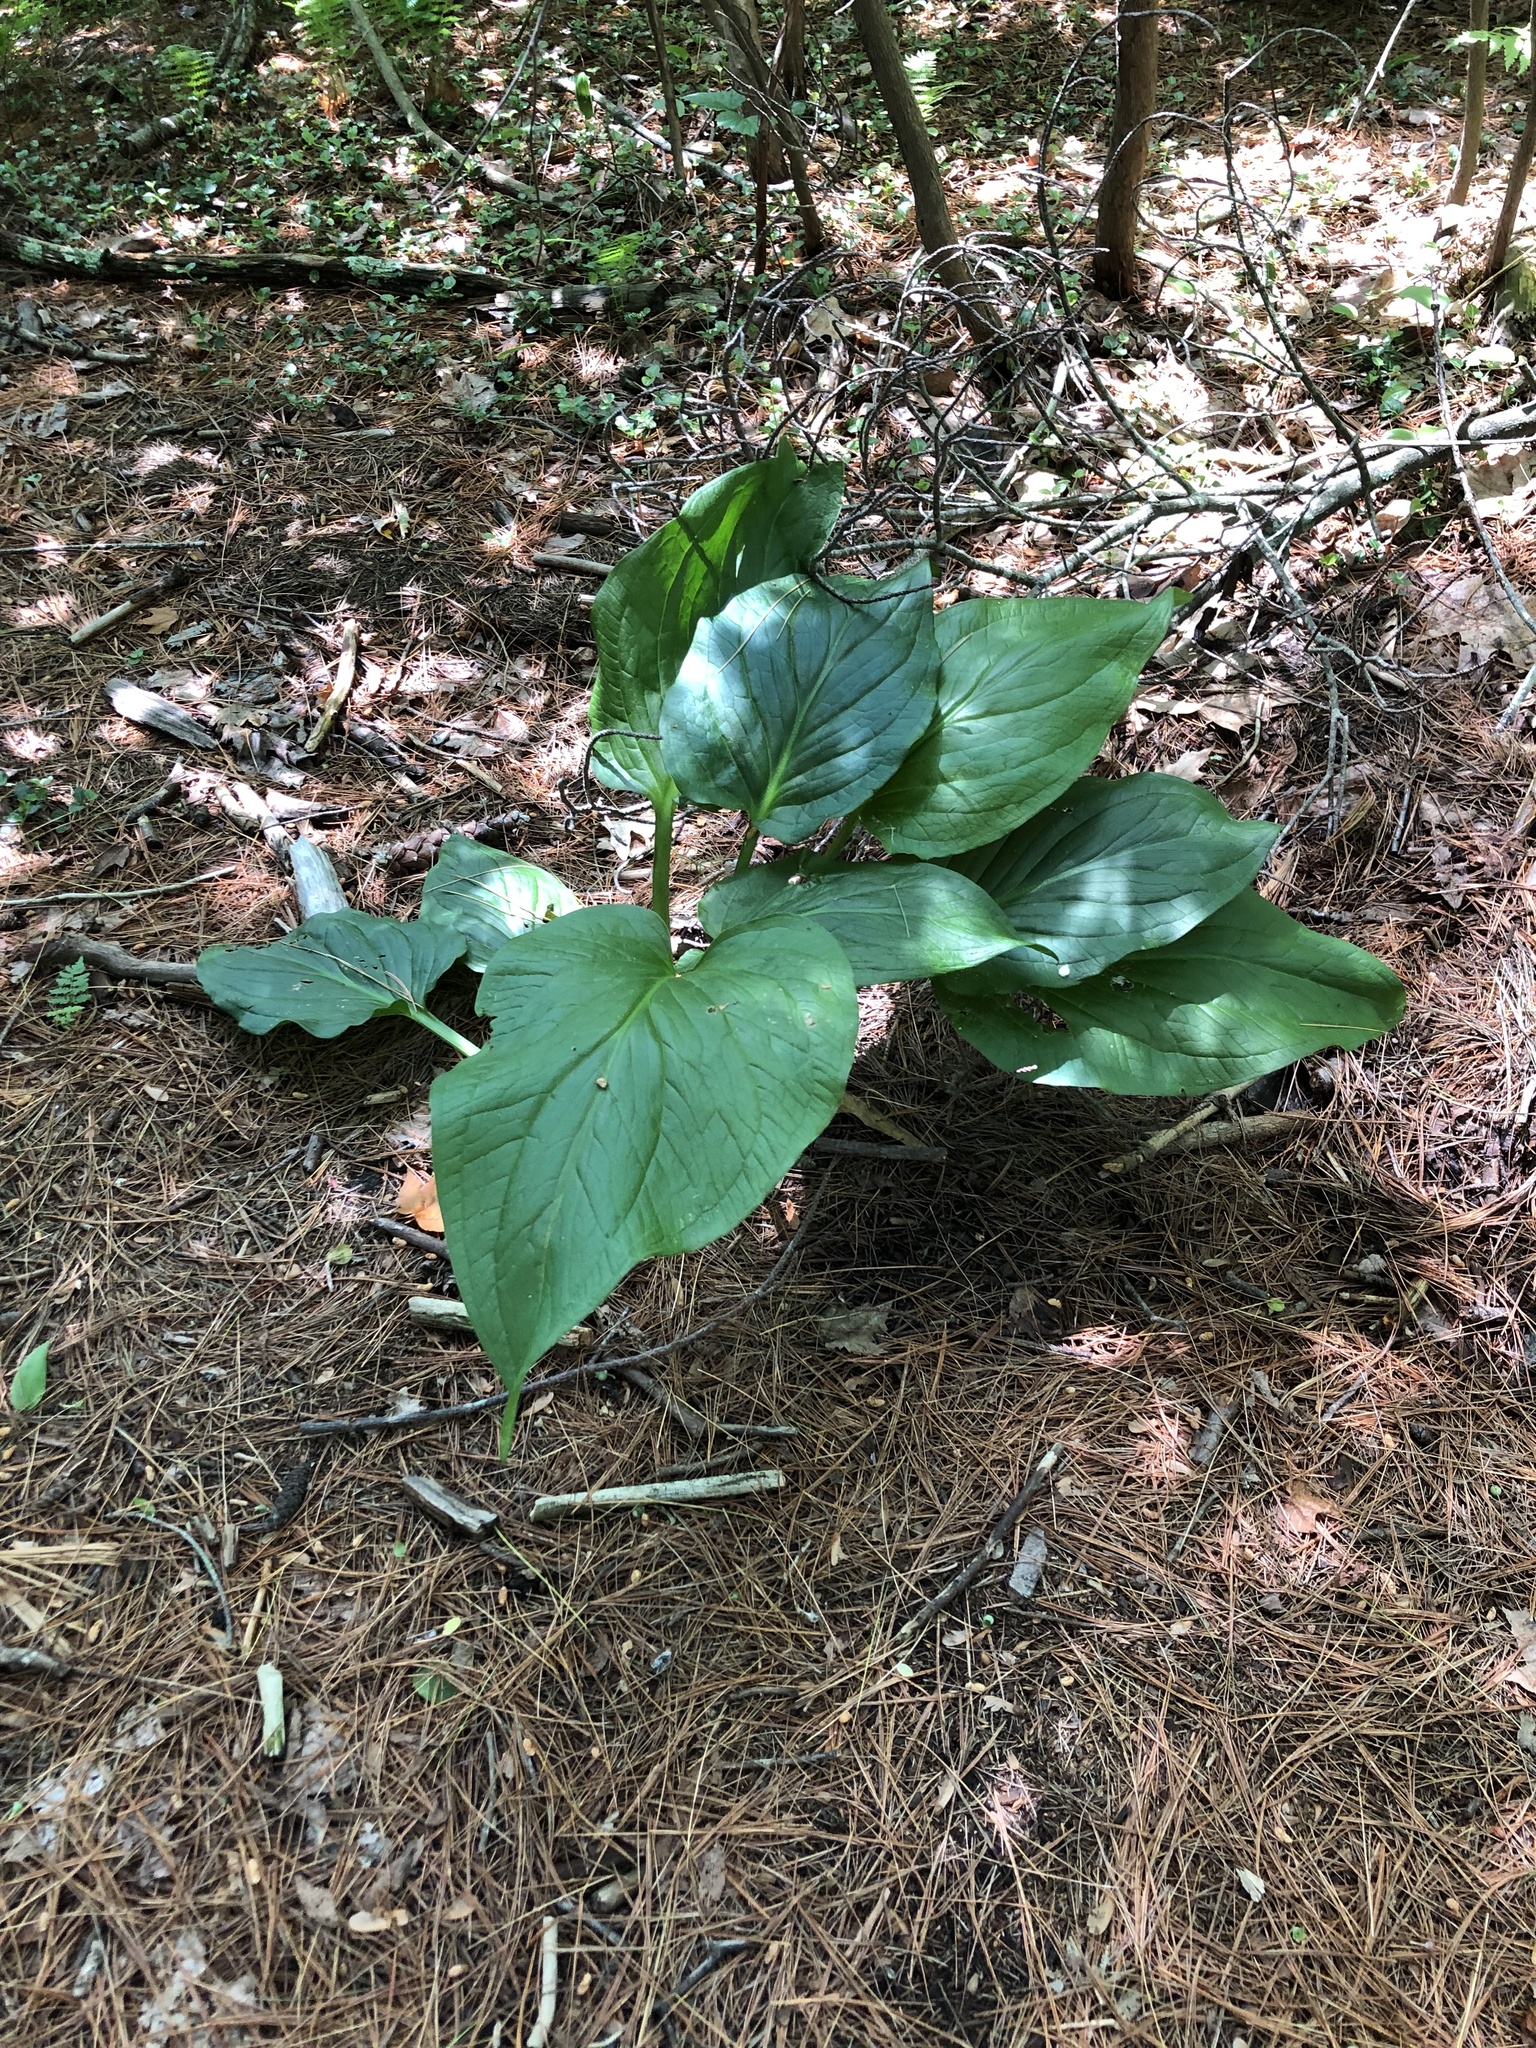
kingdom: Plantae
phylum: Tracheophyta
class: Liliopsida
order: Alismatales
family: Araceae
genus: Symplocarpus
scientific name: Symplocarpus foetidus
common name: Eastern skunk cabbage
